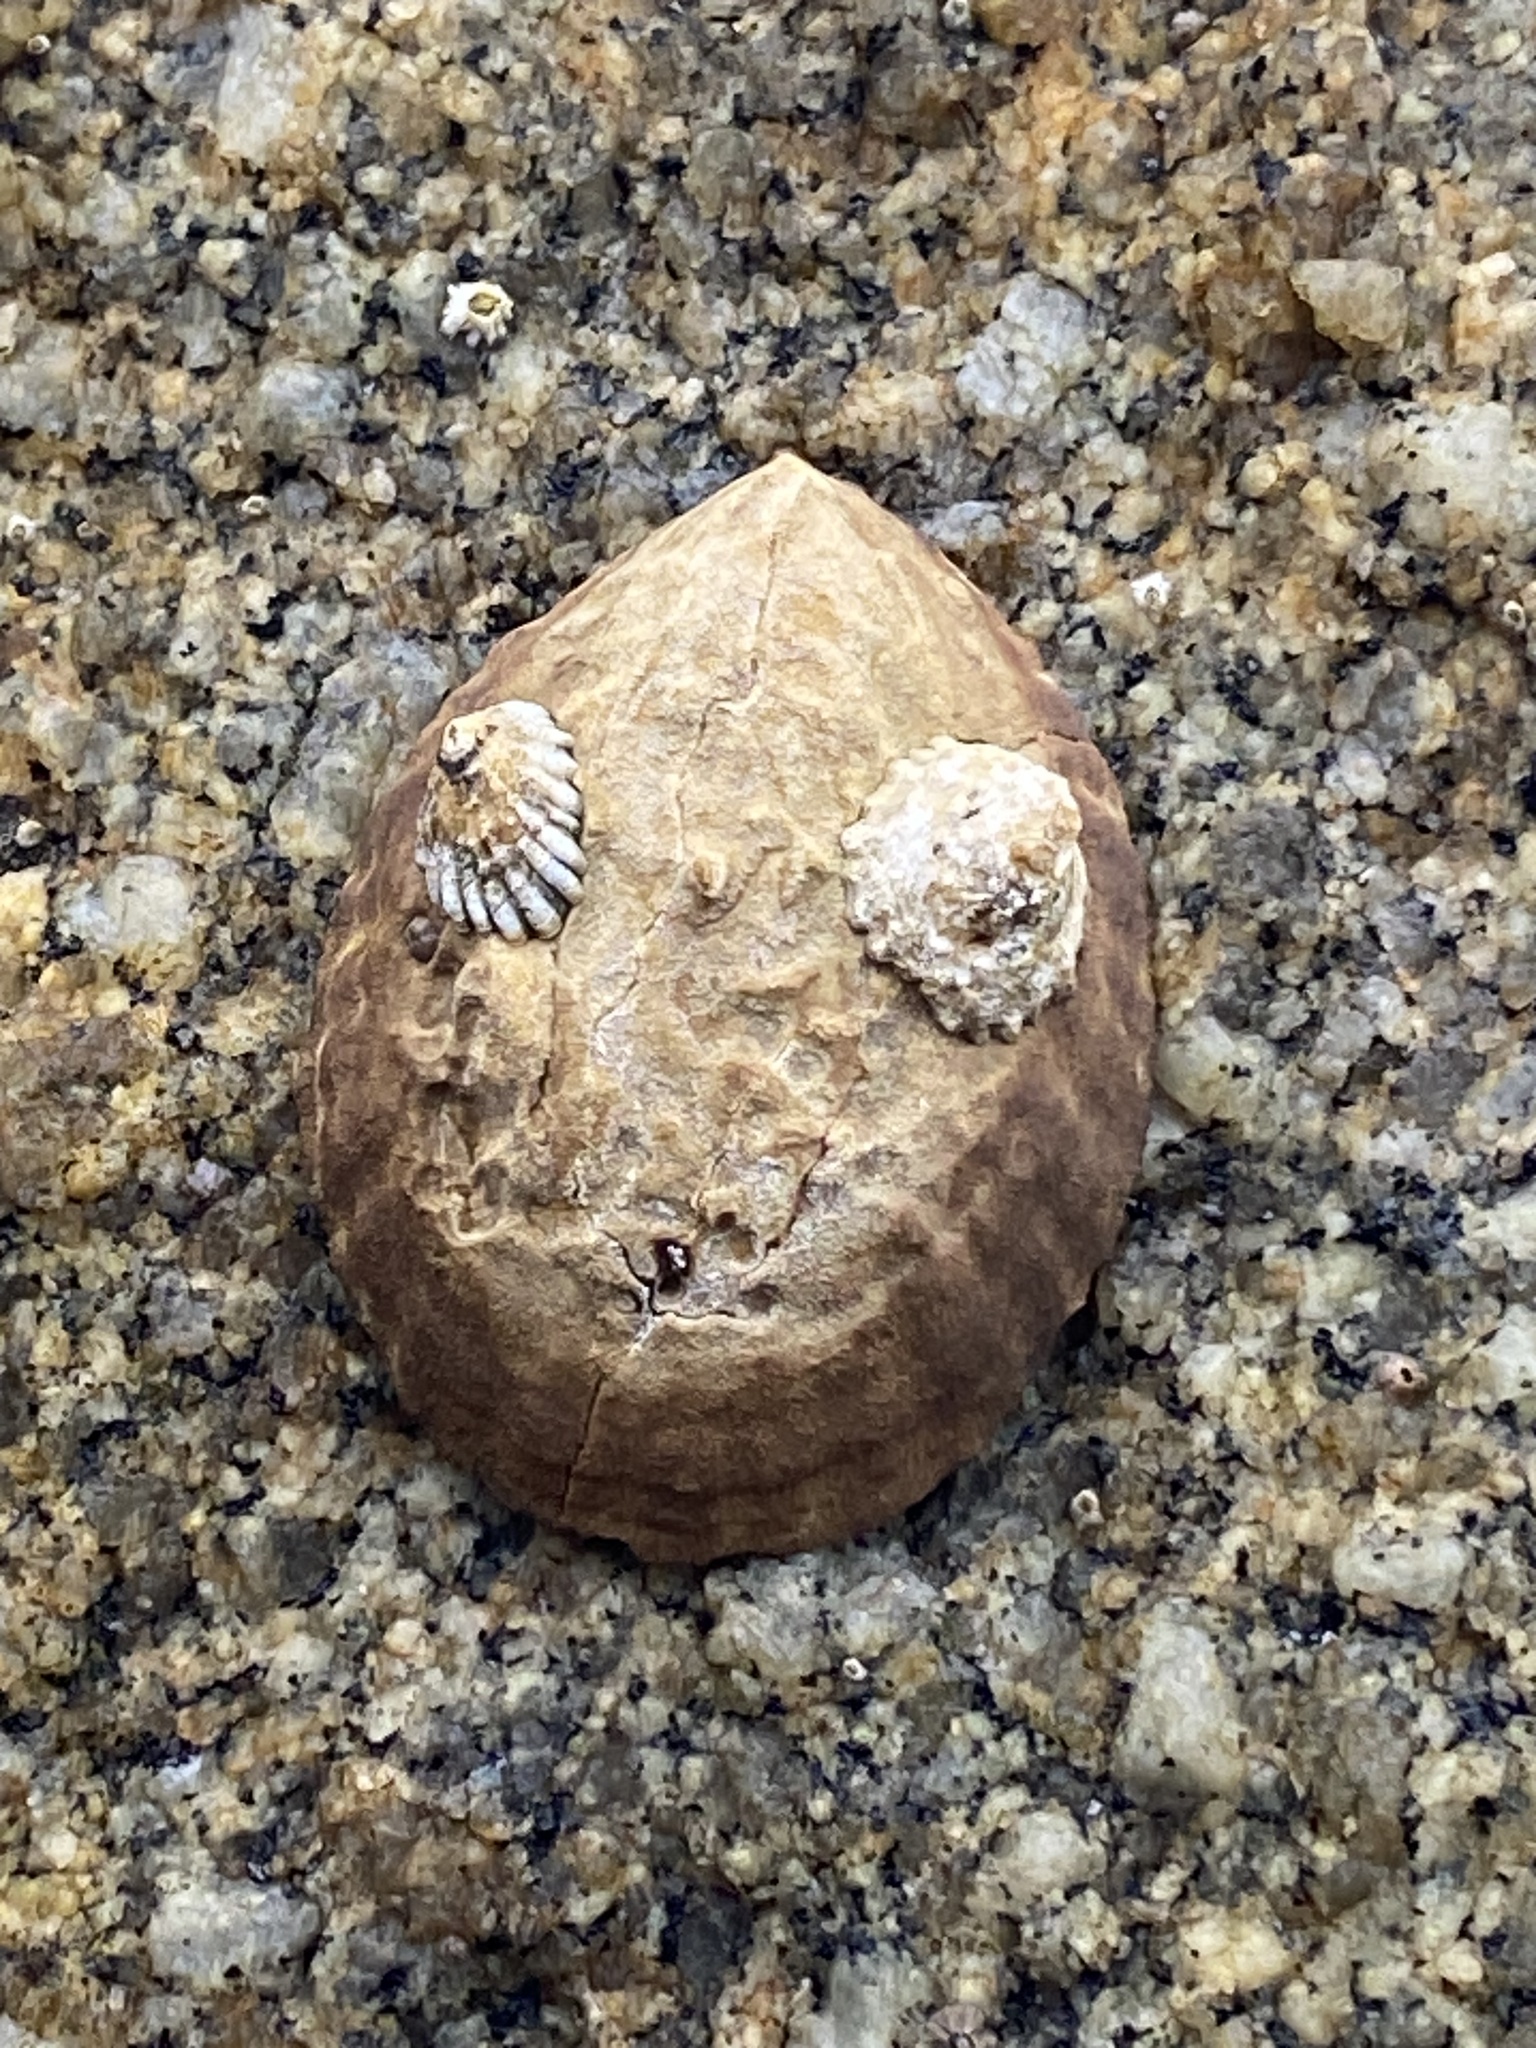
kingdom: Animalia
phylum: Mollusca
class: Gastropoda
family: Lottiidae
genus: Lottia
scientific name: Lottia gigantea
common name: Owl limpet
